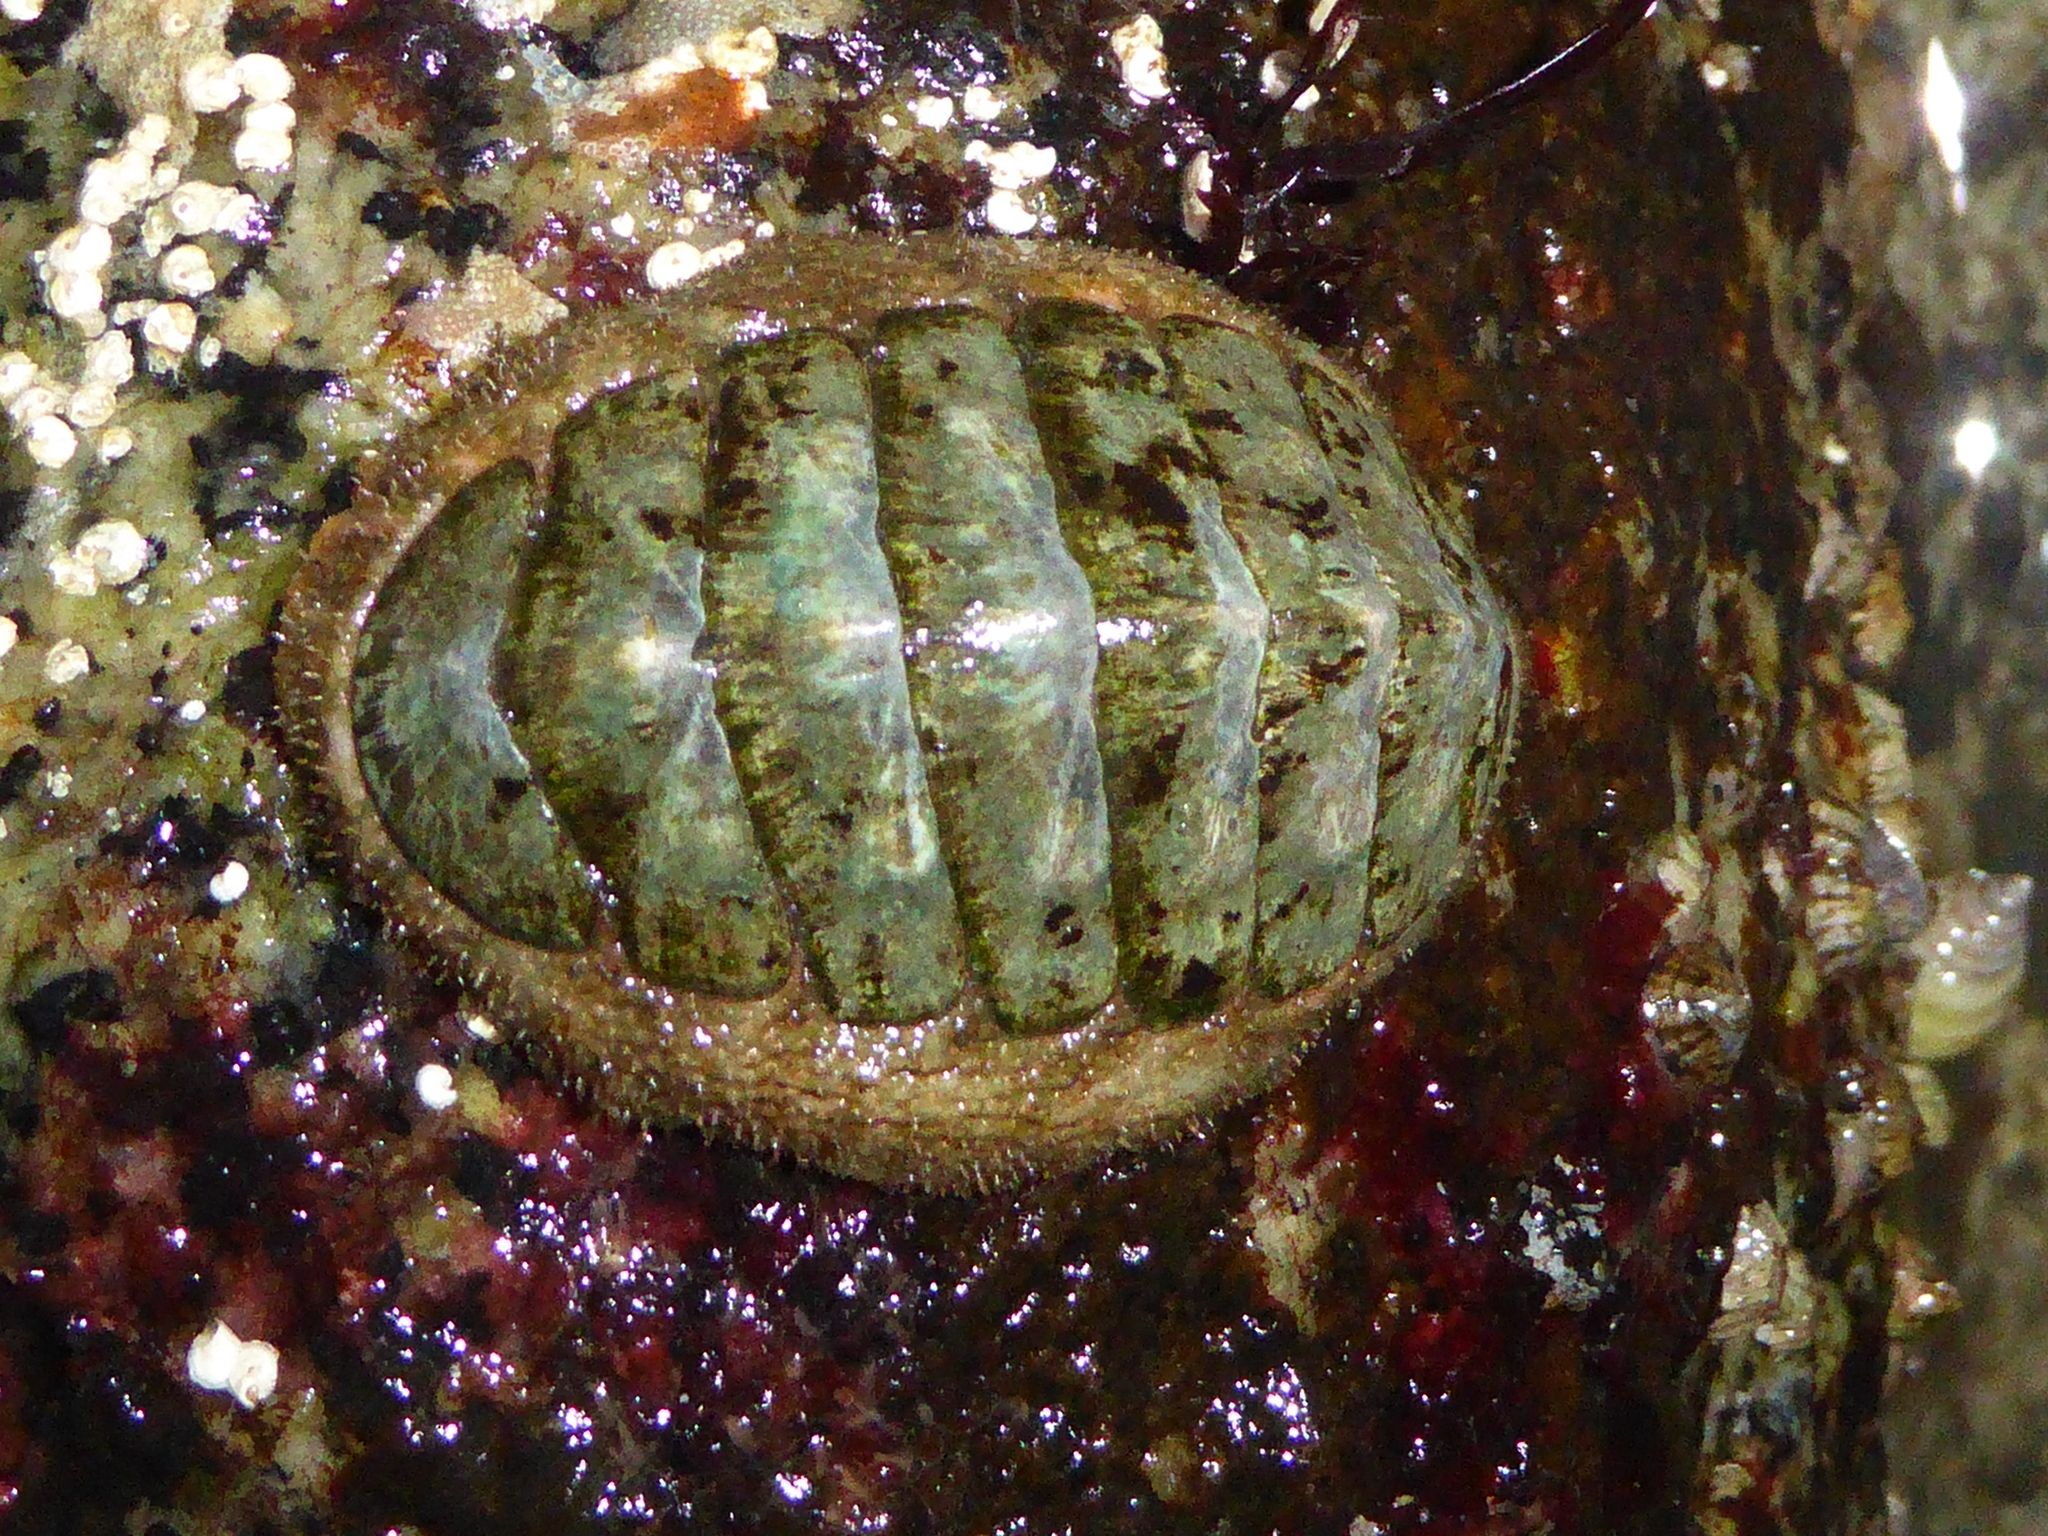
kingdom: Animalia
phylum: Mollusca
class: Polyplacophora
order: Chitonida
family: Mopaliidae
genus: Mopalia
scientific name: Mopalia lignosa
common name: Woody chiton
